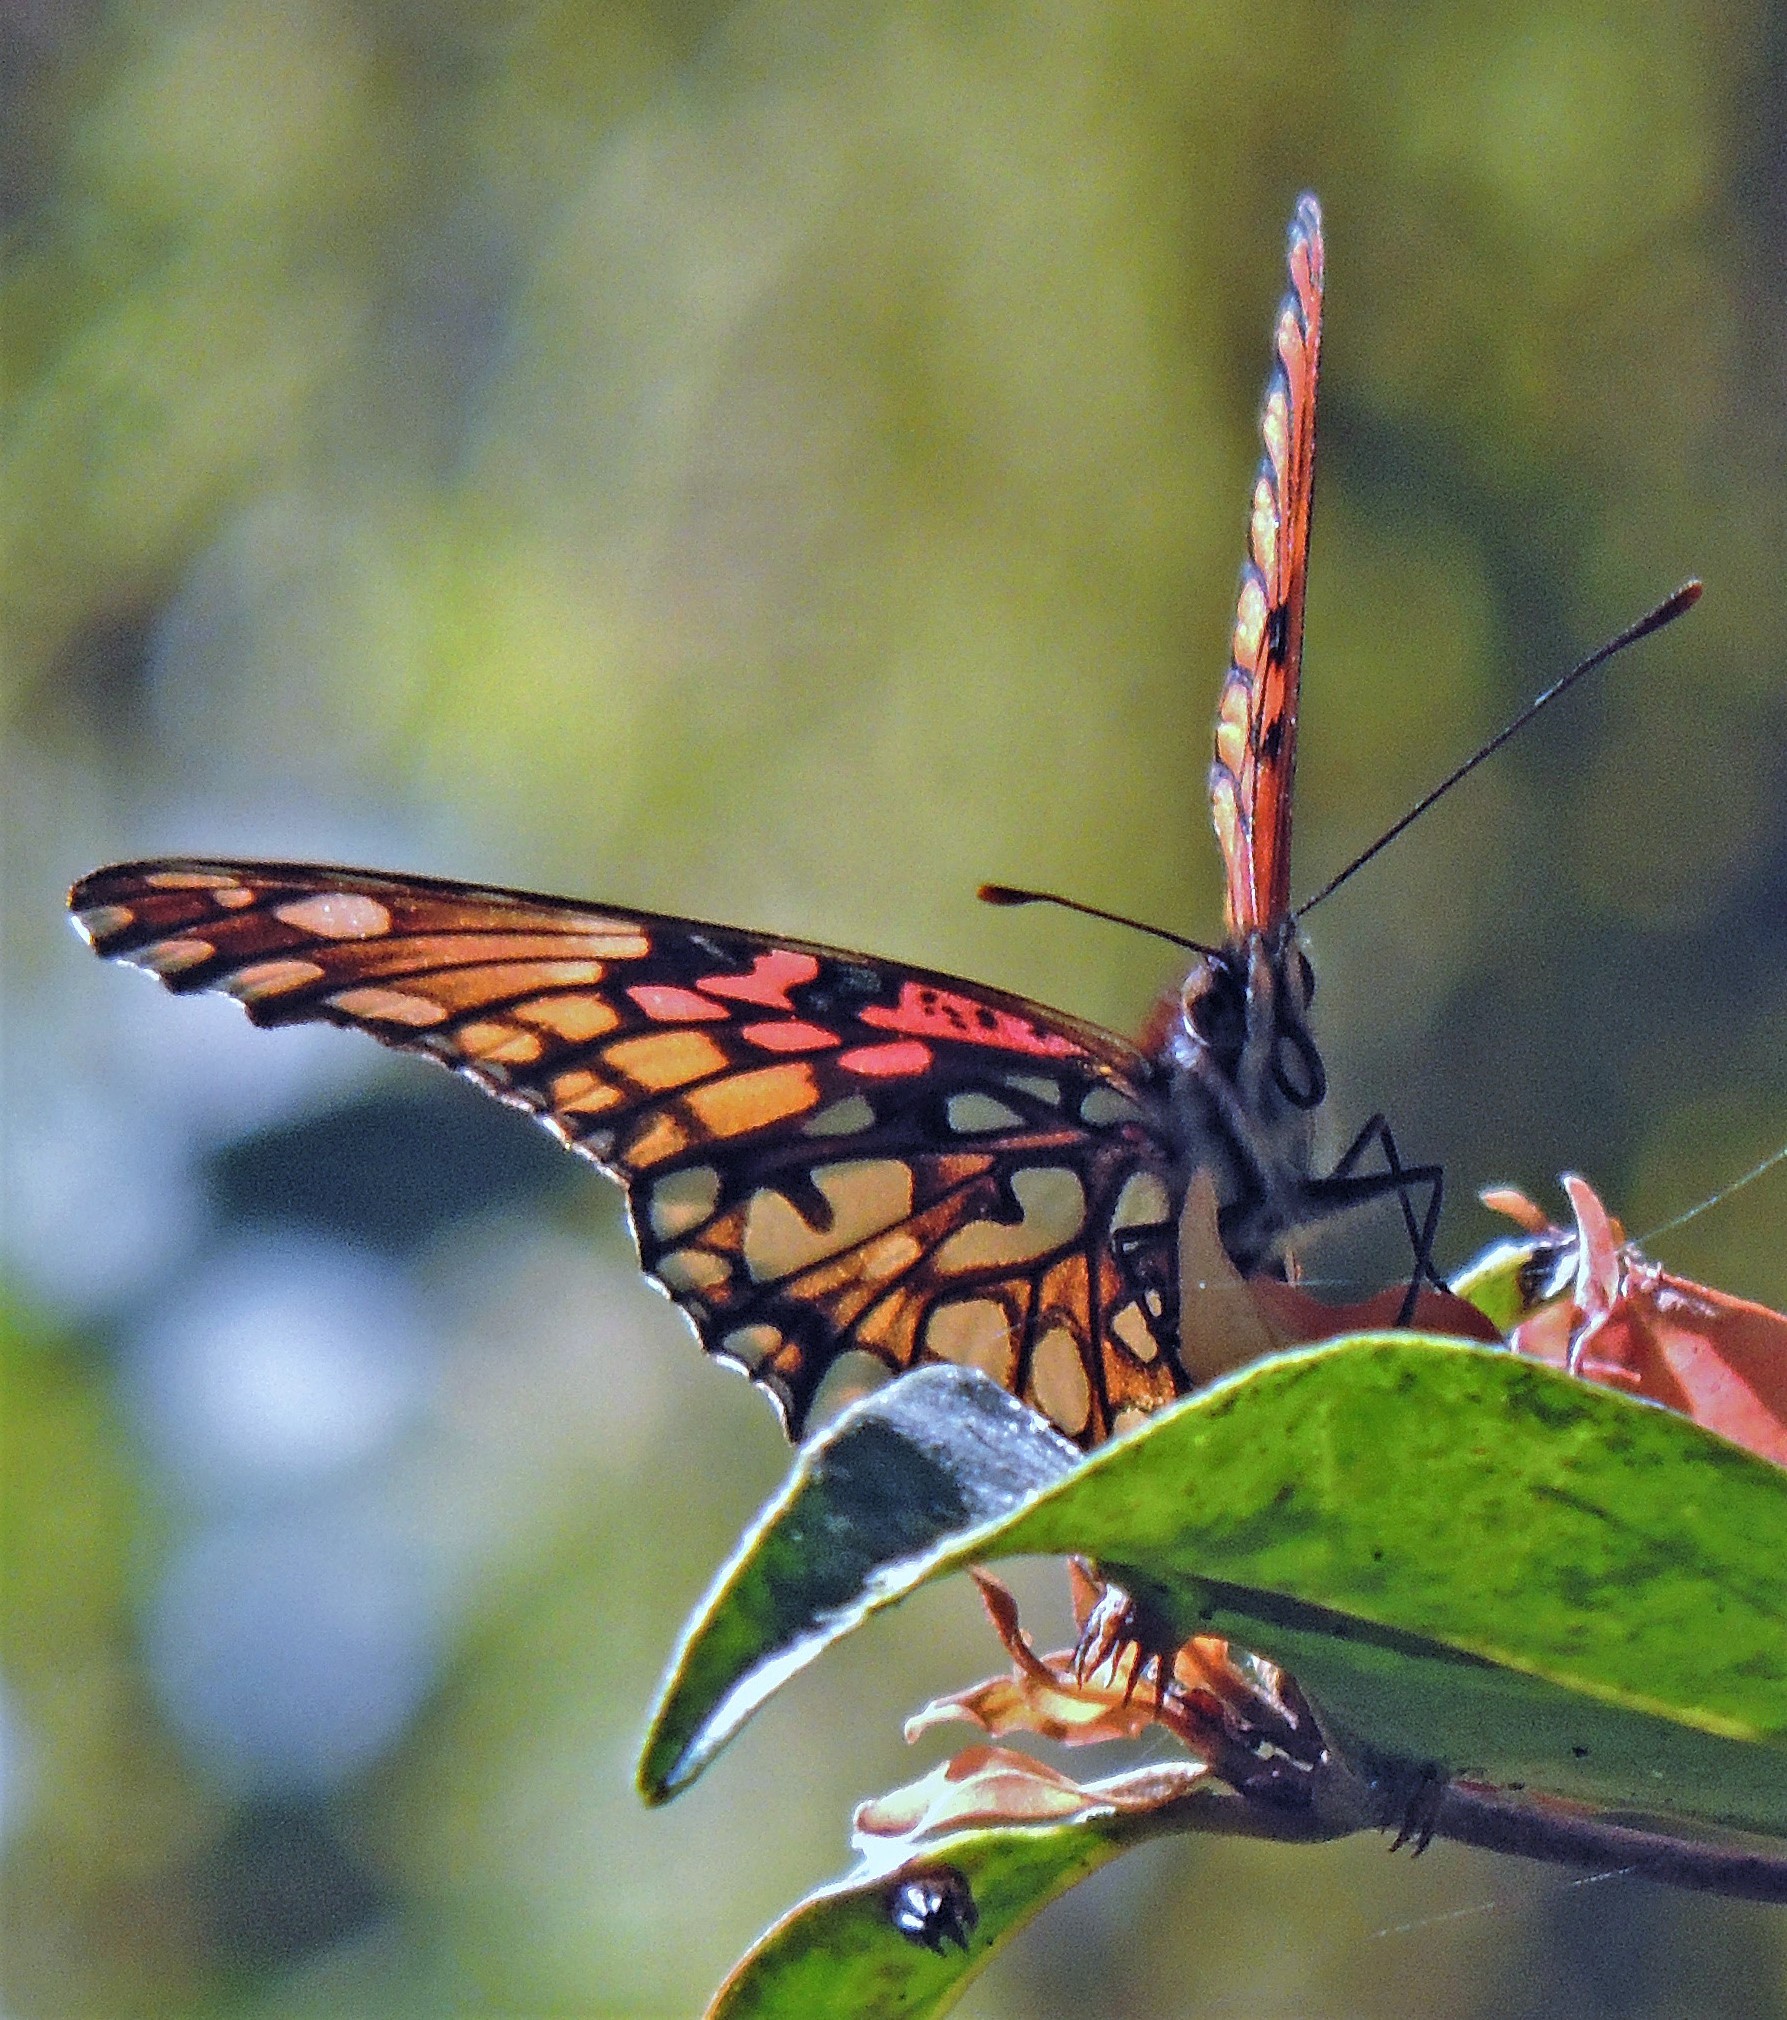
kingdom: Animalia
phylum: Arthropoda
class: Insecta
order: Lepidoptera
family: Nymphalidae
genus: Dione
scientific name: Dione moneta
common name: Mexican silverspot
